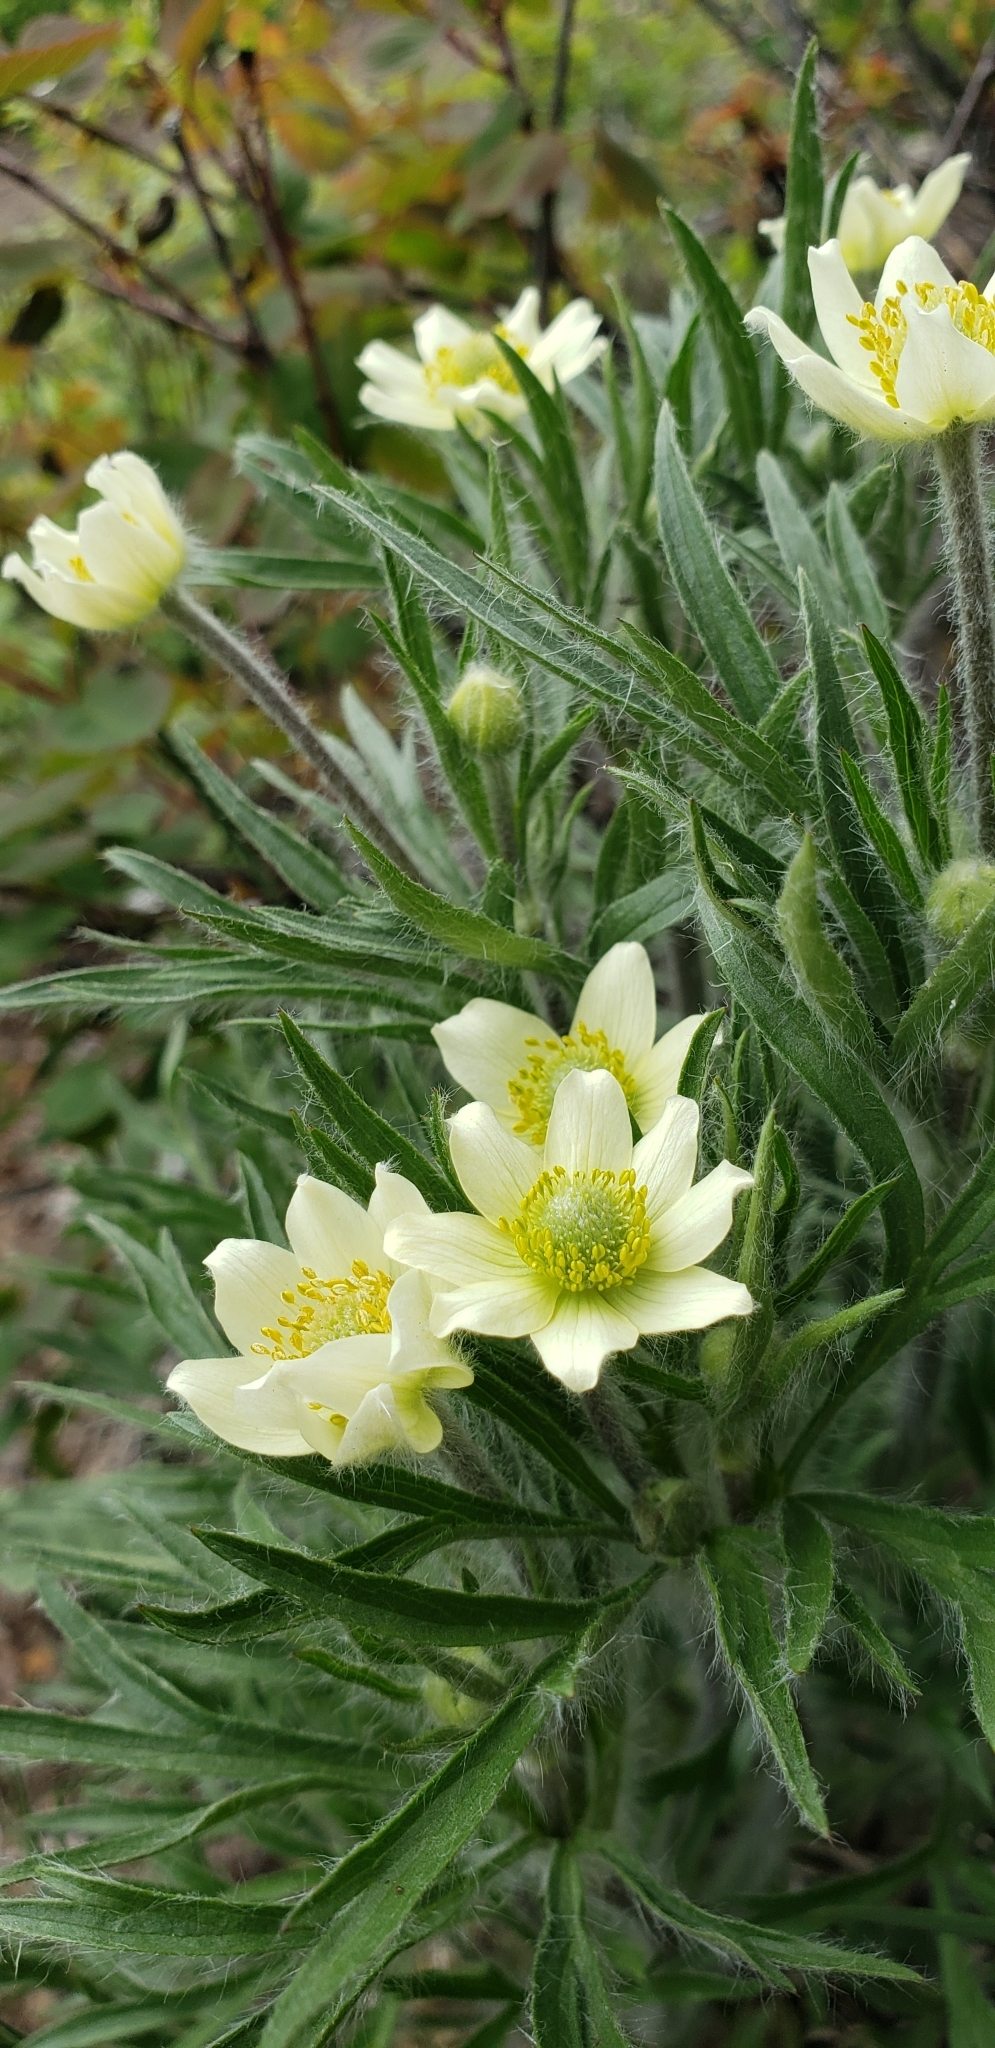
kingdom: Plantae
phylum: Tracheophyta
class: Magnoliopsida
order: Ranunculales
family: Ranunculaceae
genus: Anemonastrum
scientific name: Anemonastrum narcissiflorum
